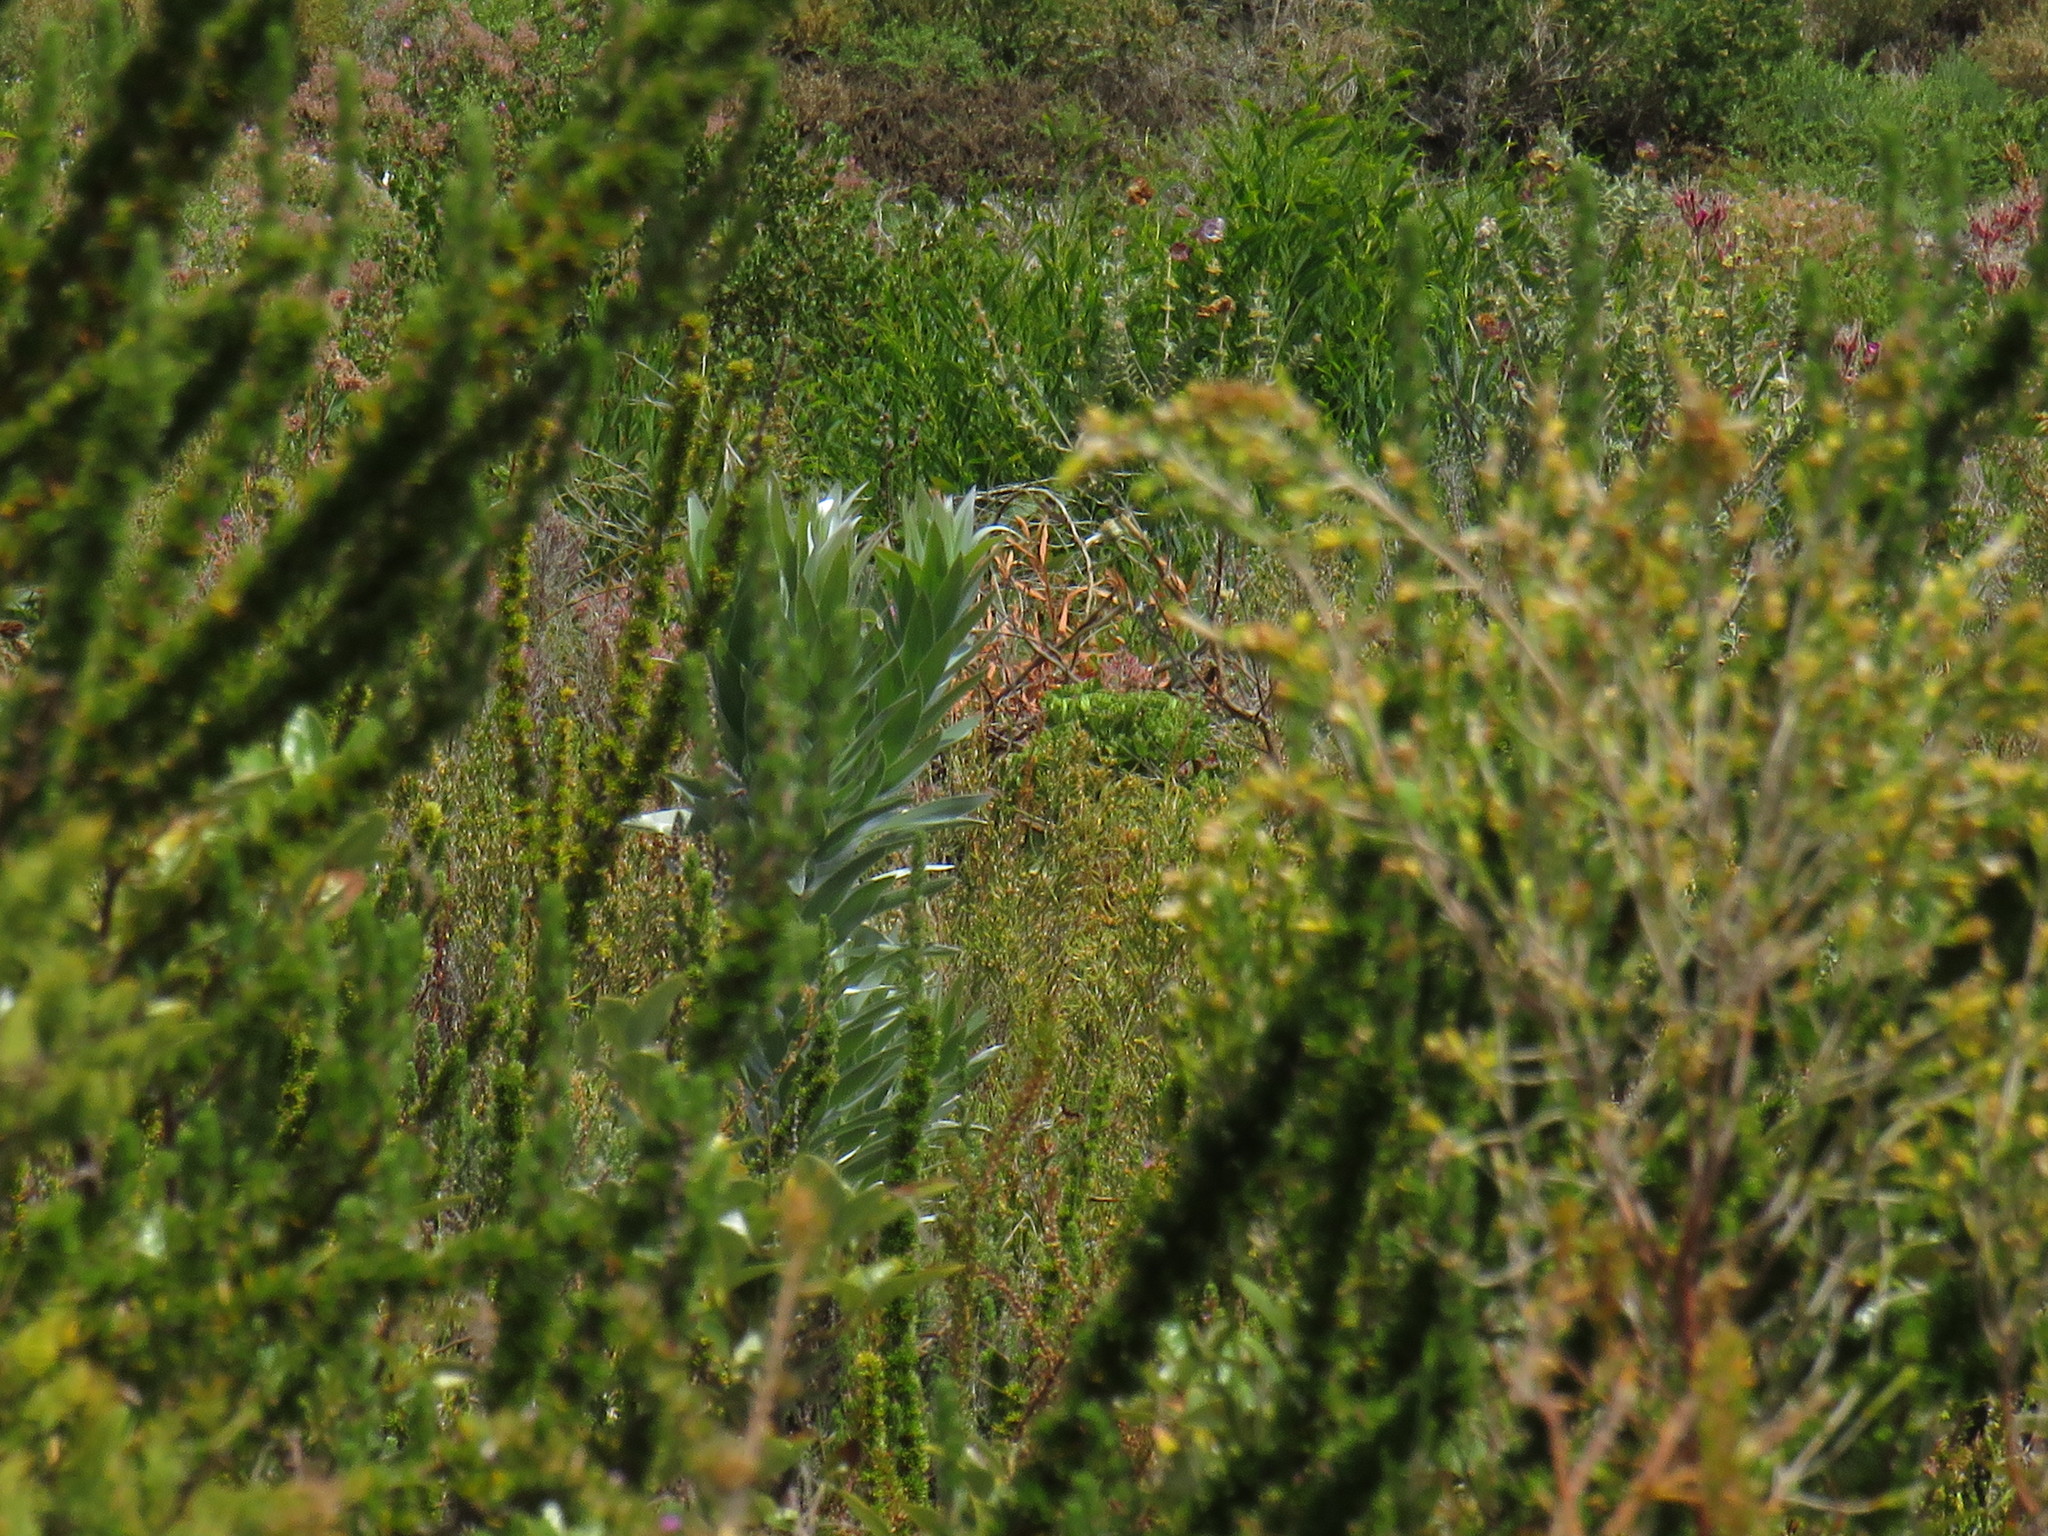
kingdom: Plantae
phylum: Tracheophyta
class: Magnoliopsida
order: Proteales
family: Proteaceae
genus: Leucadendron
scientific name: Leucadendron argenteum
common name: Cape silver tree
